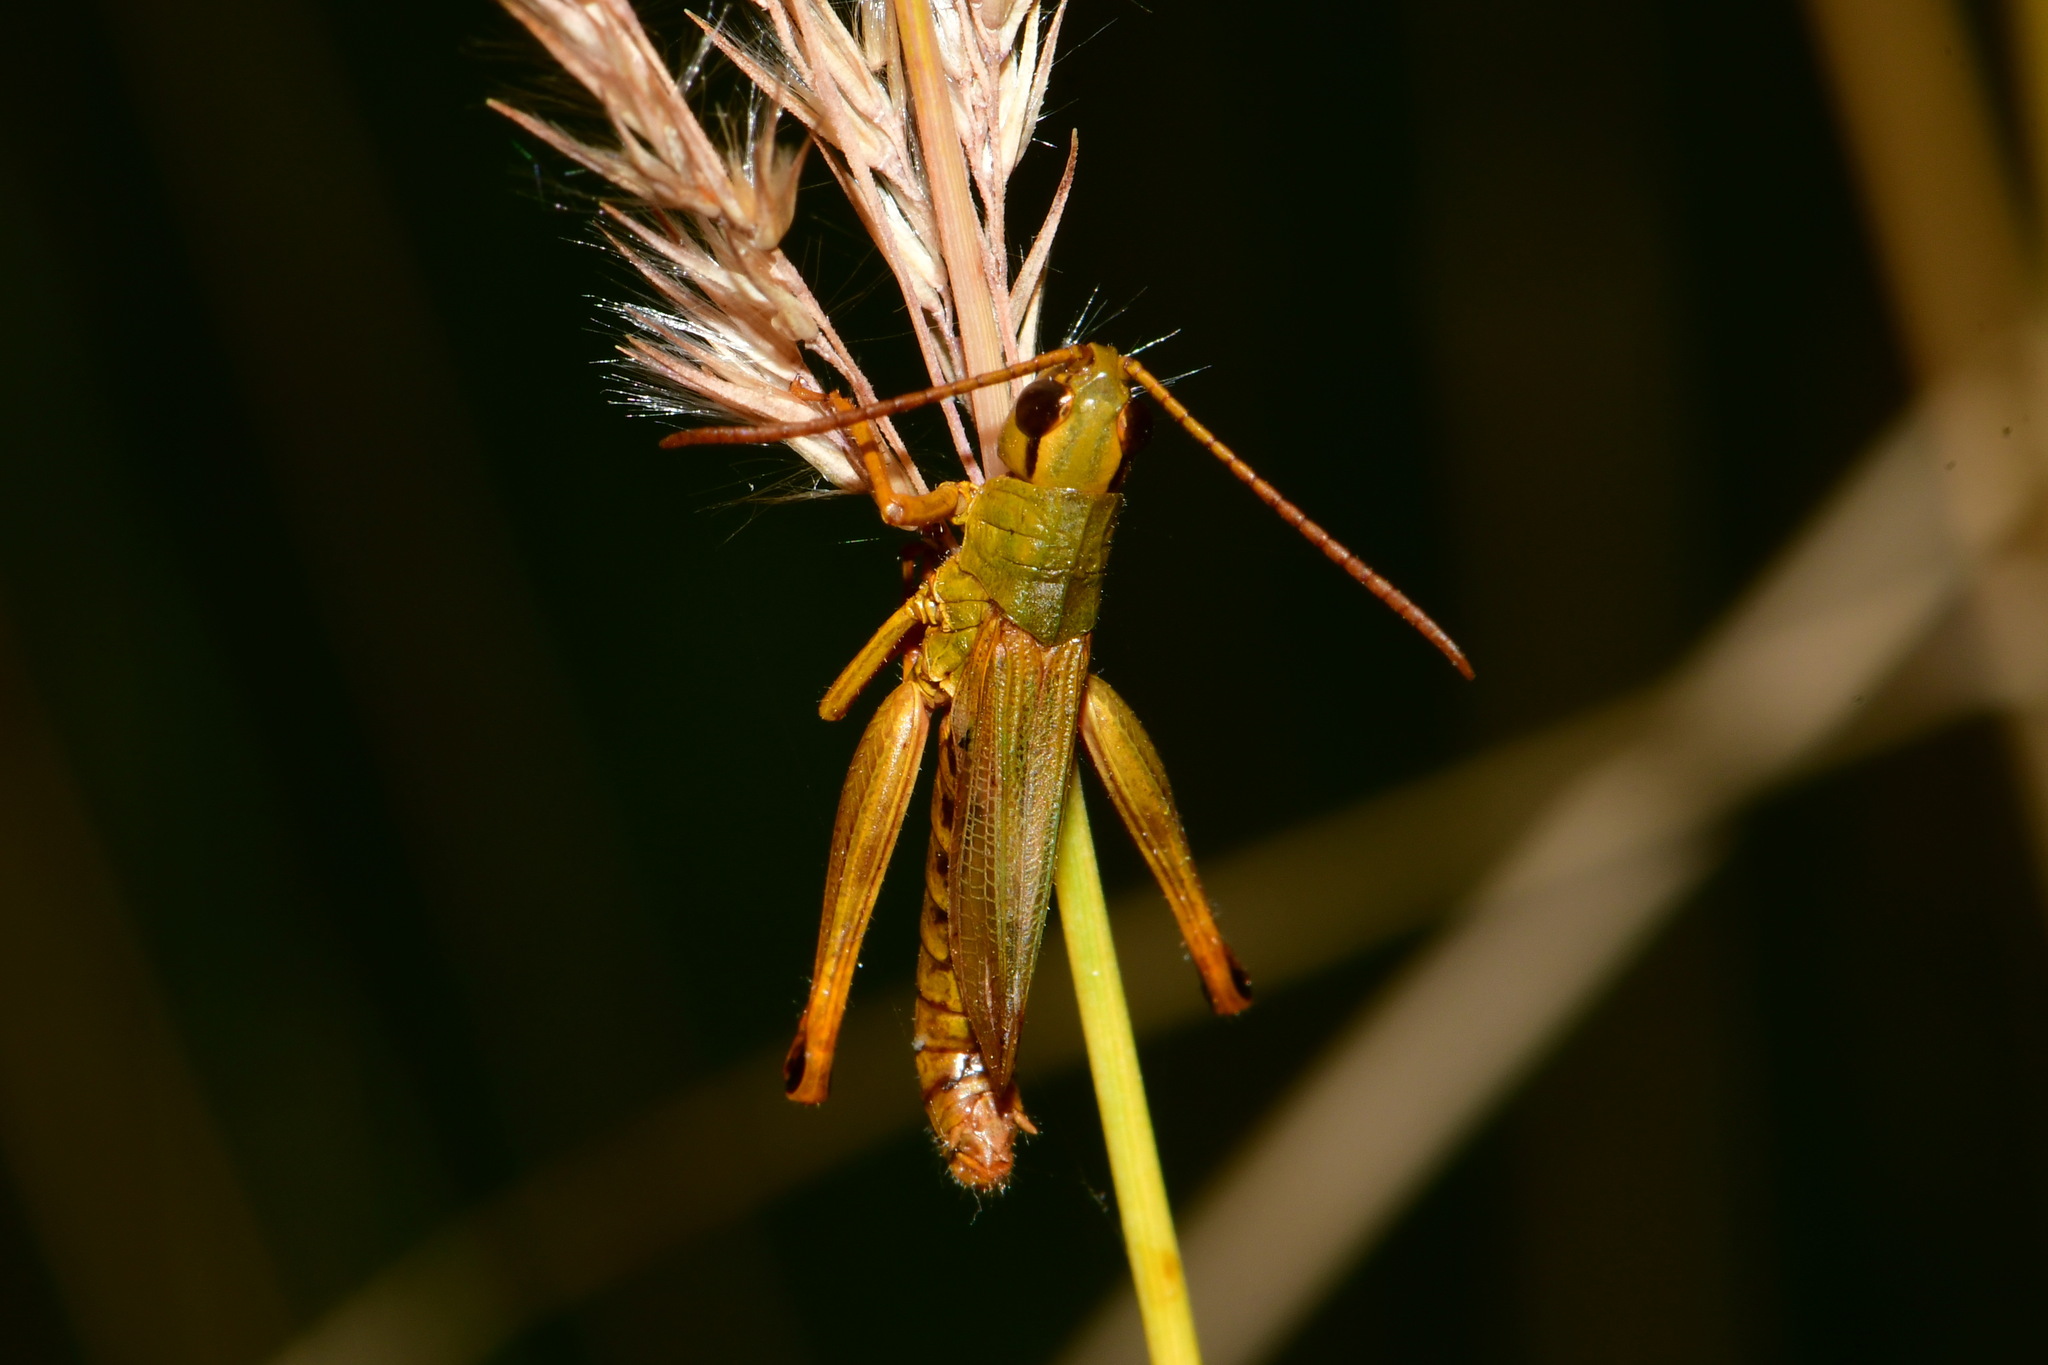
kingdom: Animalia
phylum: Arthropoda
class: Insecta
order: Orthoptera
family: Acrididae
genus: Pseudochorthippus
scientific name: Pseudochorthippus parallelus
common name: Meadow grasshopper
